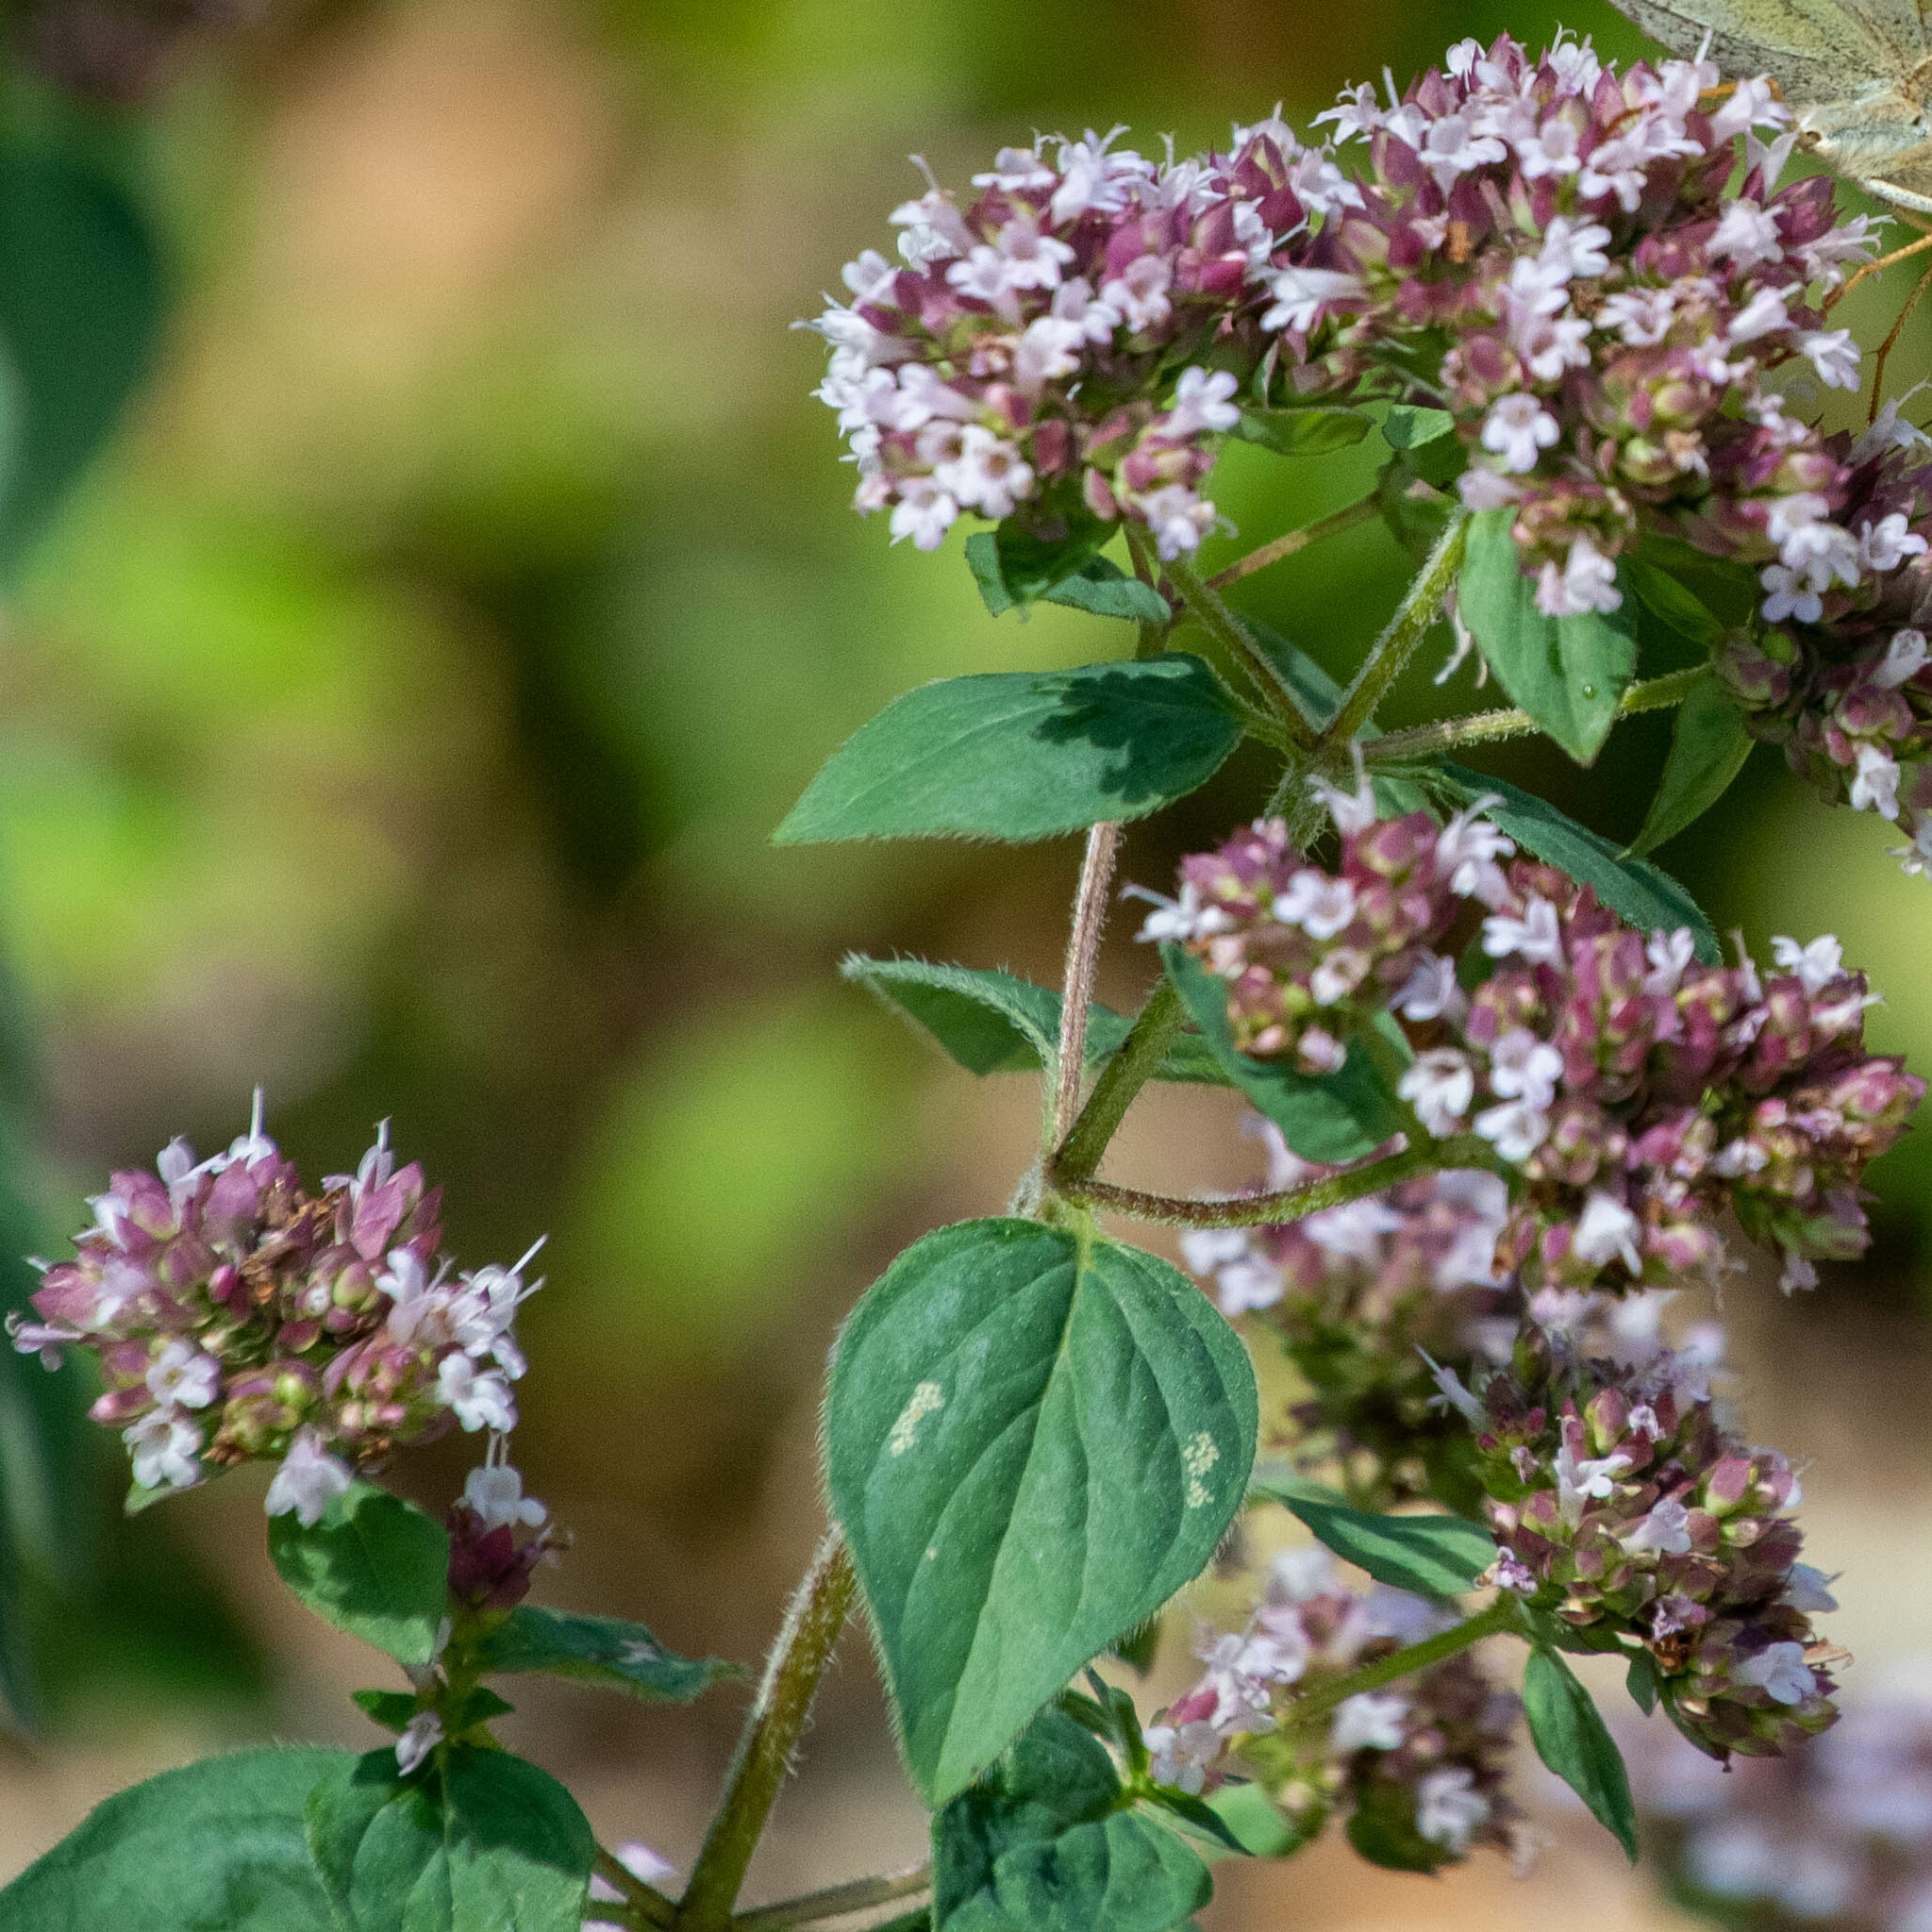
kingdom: Plantae
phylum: Tracheophyta
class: Magnoliopsida
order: Lamiales
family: Lamiaceae
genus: Origanum
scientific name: Origanum vulgare
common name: Wild marjoram
